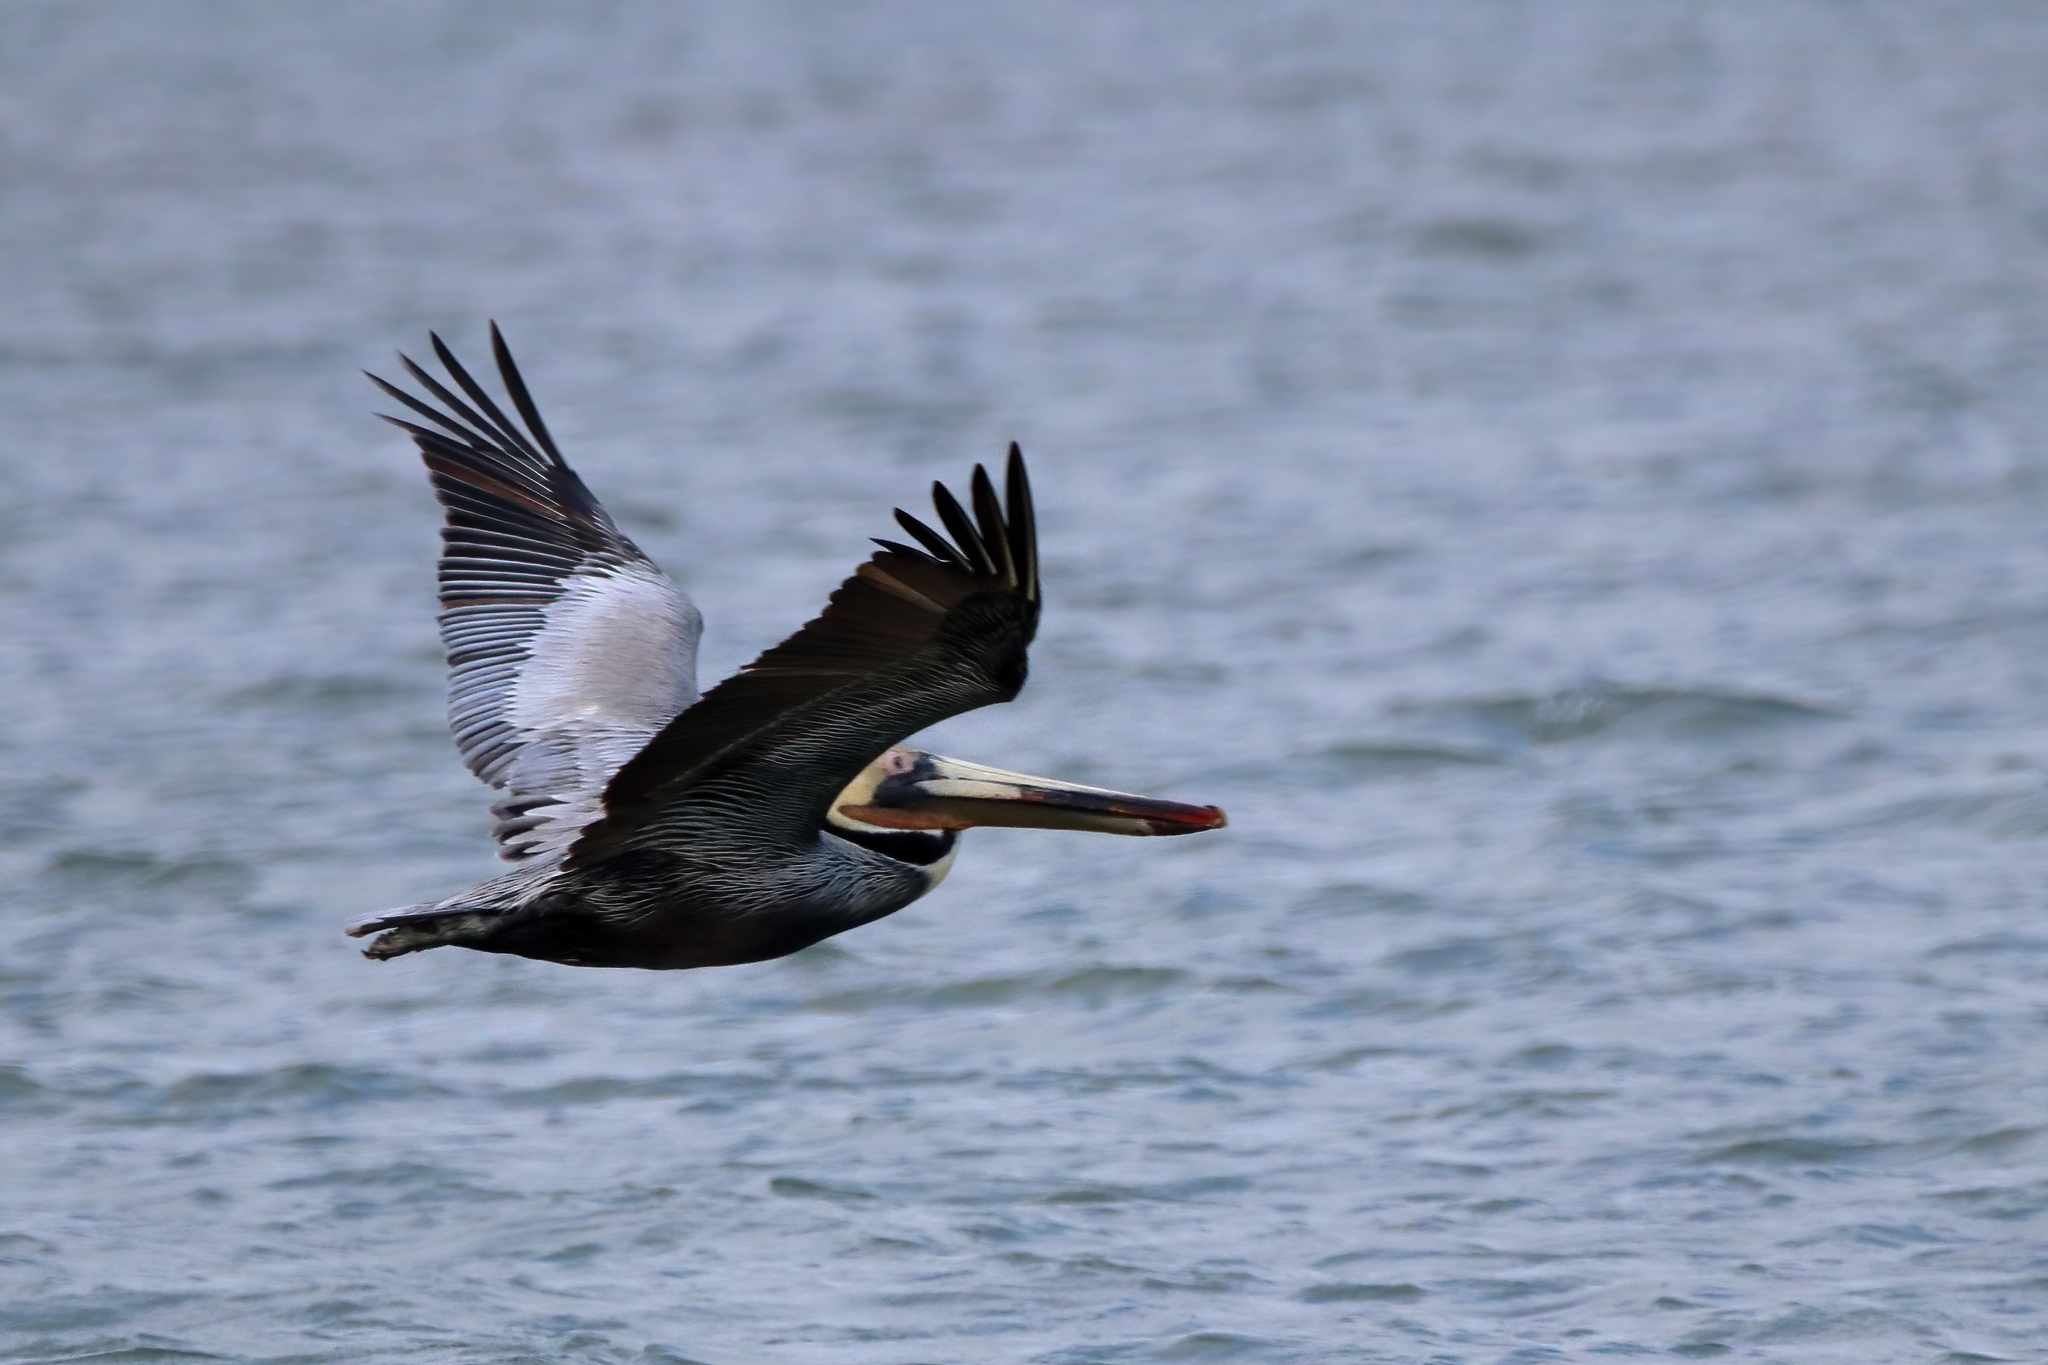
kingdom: Animalia
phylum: Chordata
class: Aves
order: Pelecaniformes
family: Pelecanidae
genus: Pelecanus
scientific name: Pelecanus occidentalis
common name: Brown pelican
